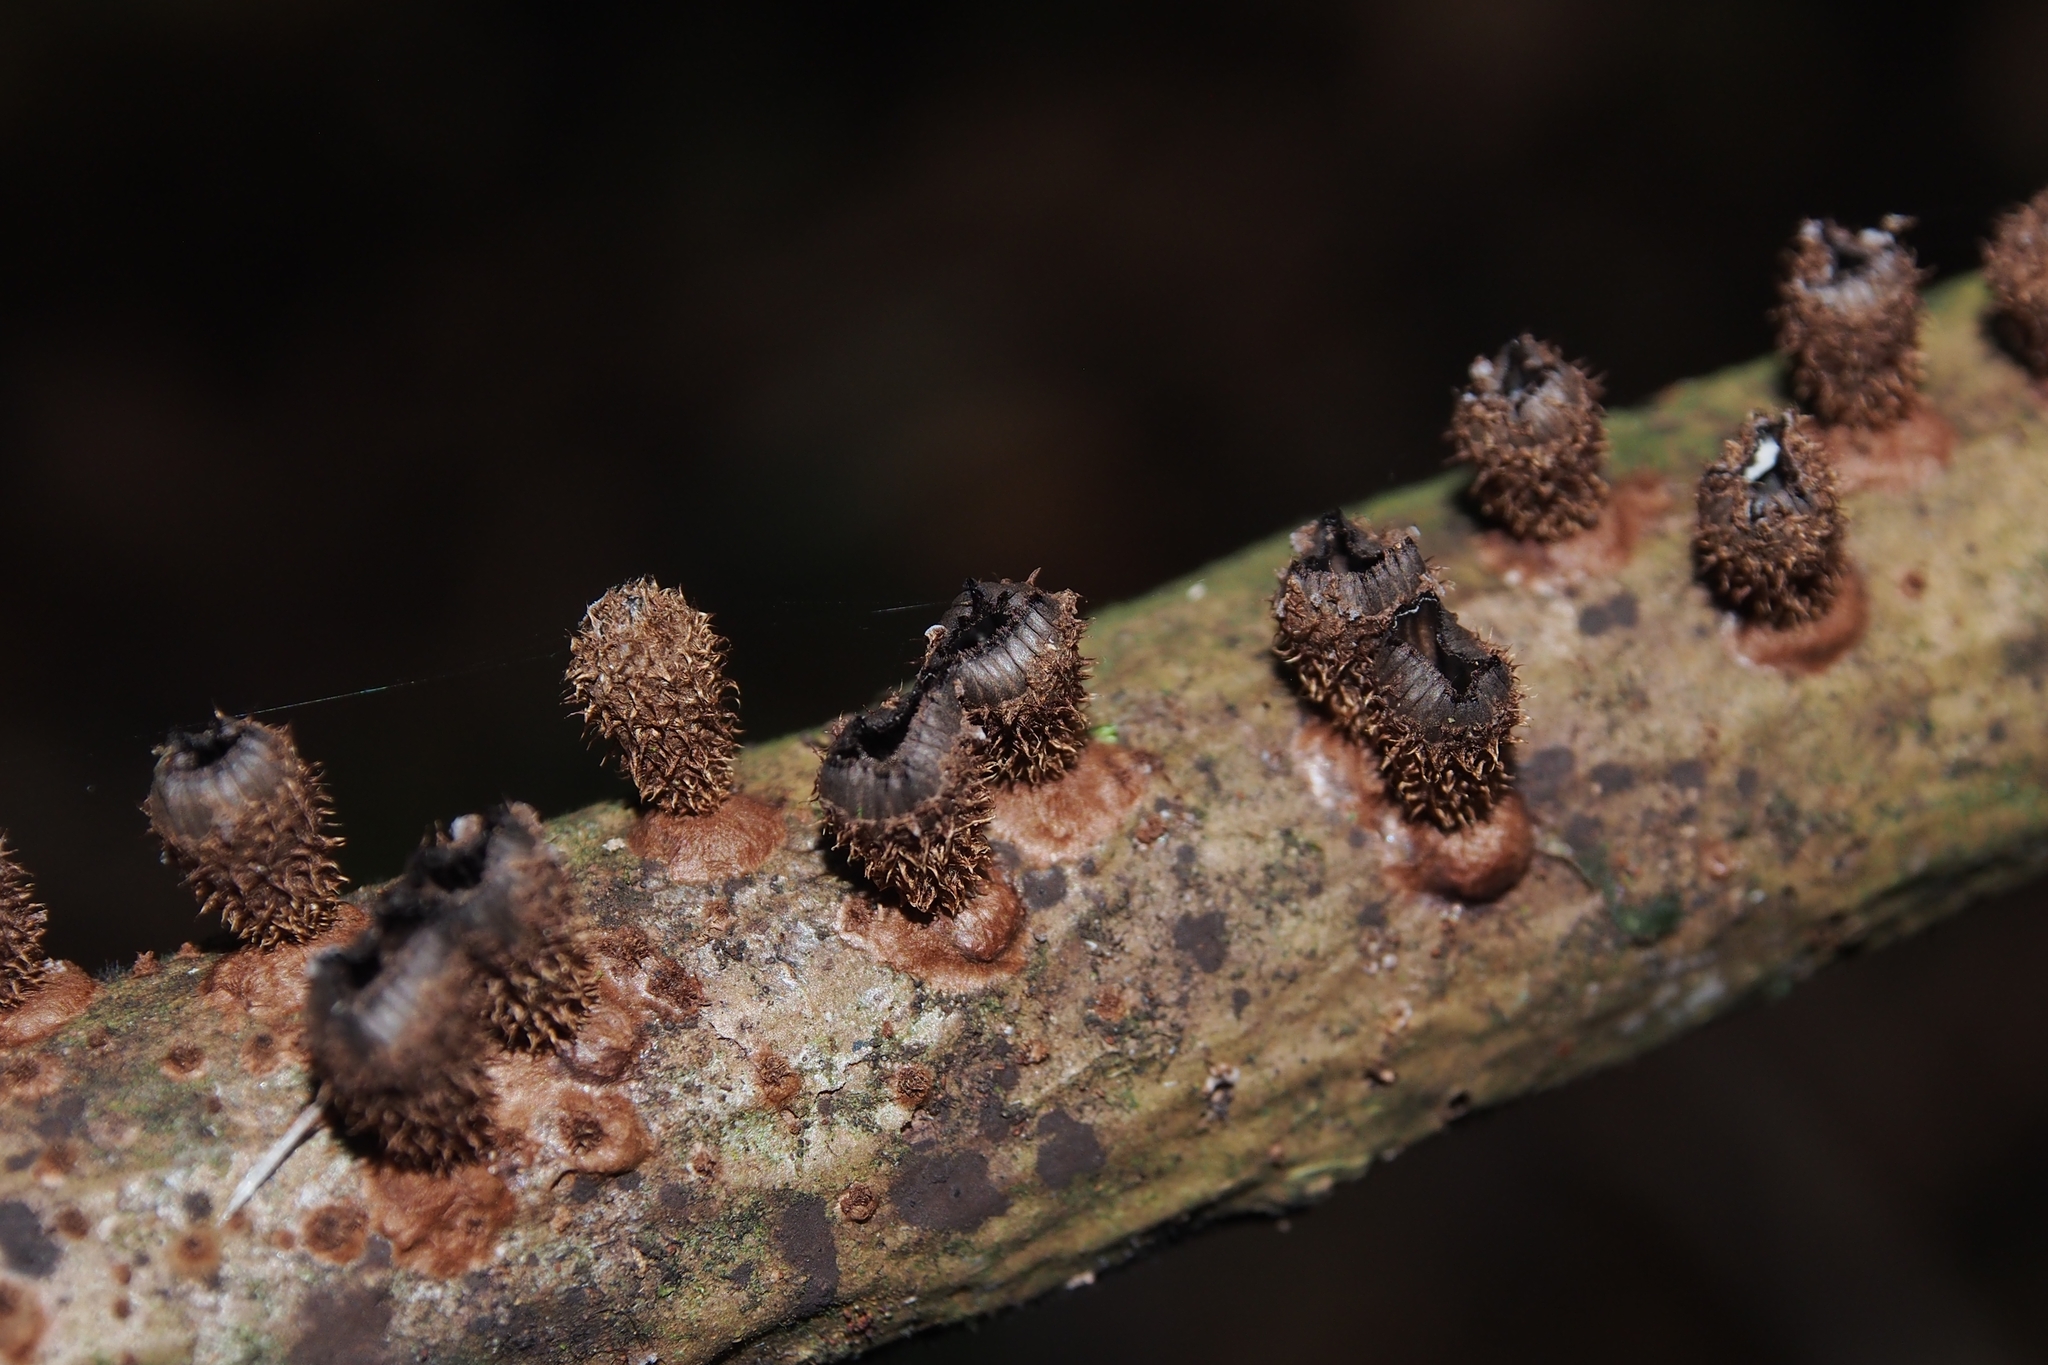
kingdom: Fungi
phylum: Basidiomycota
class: Agaricomycetes
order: Agaricales
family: Agaricaceae
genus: Cyathus
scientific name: Cyathus striatus
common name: Fluted bird's nest
